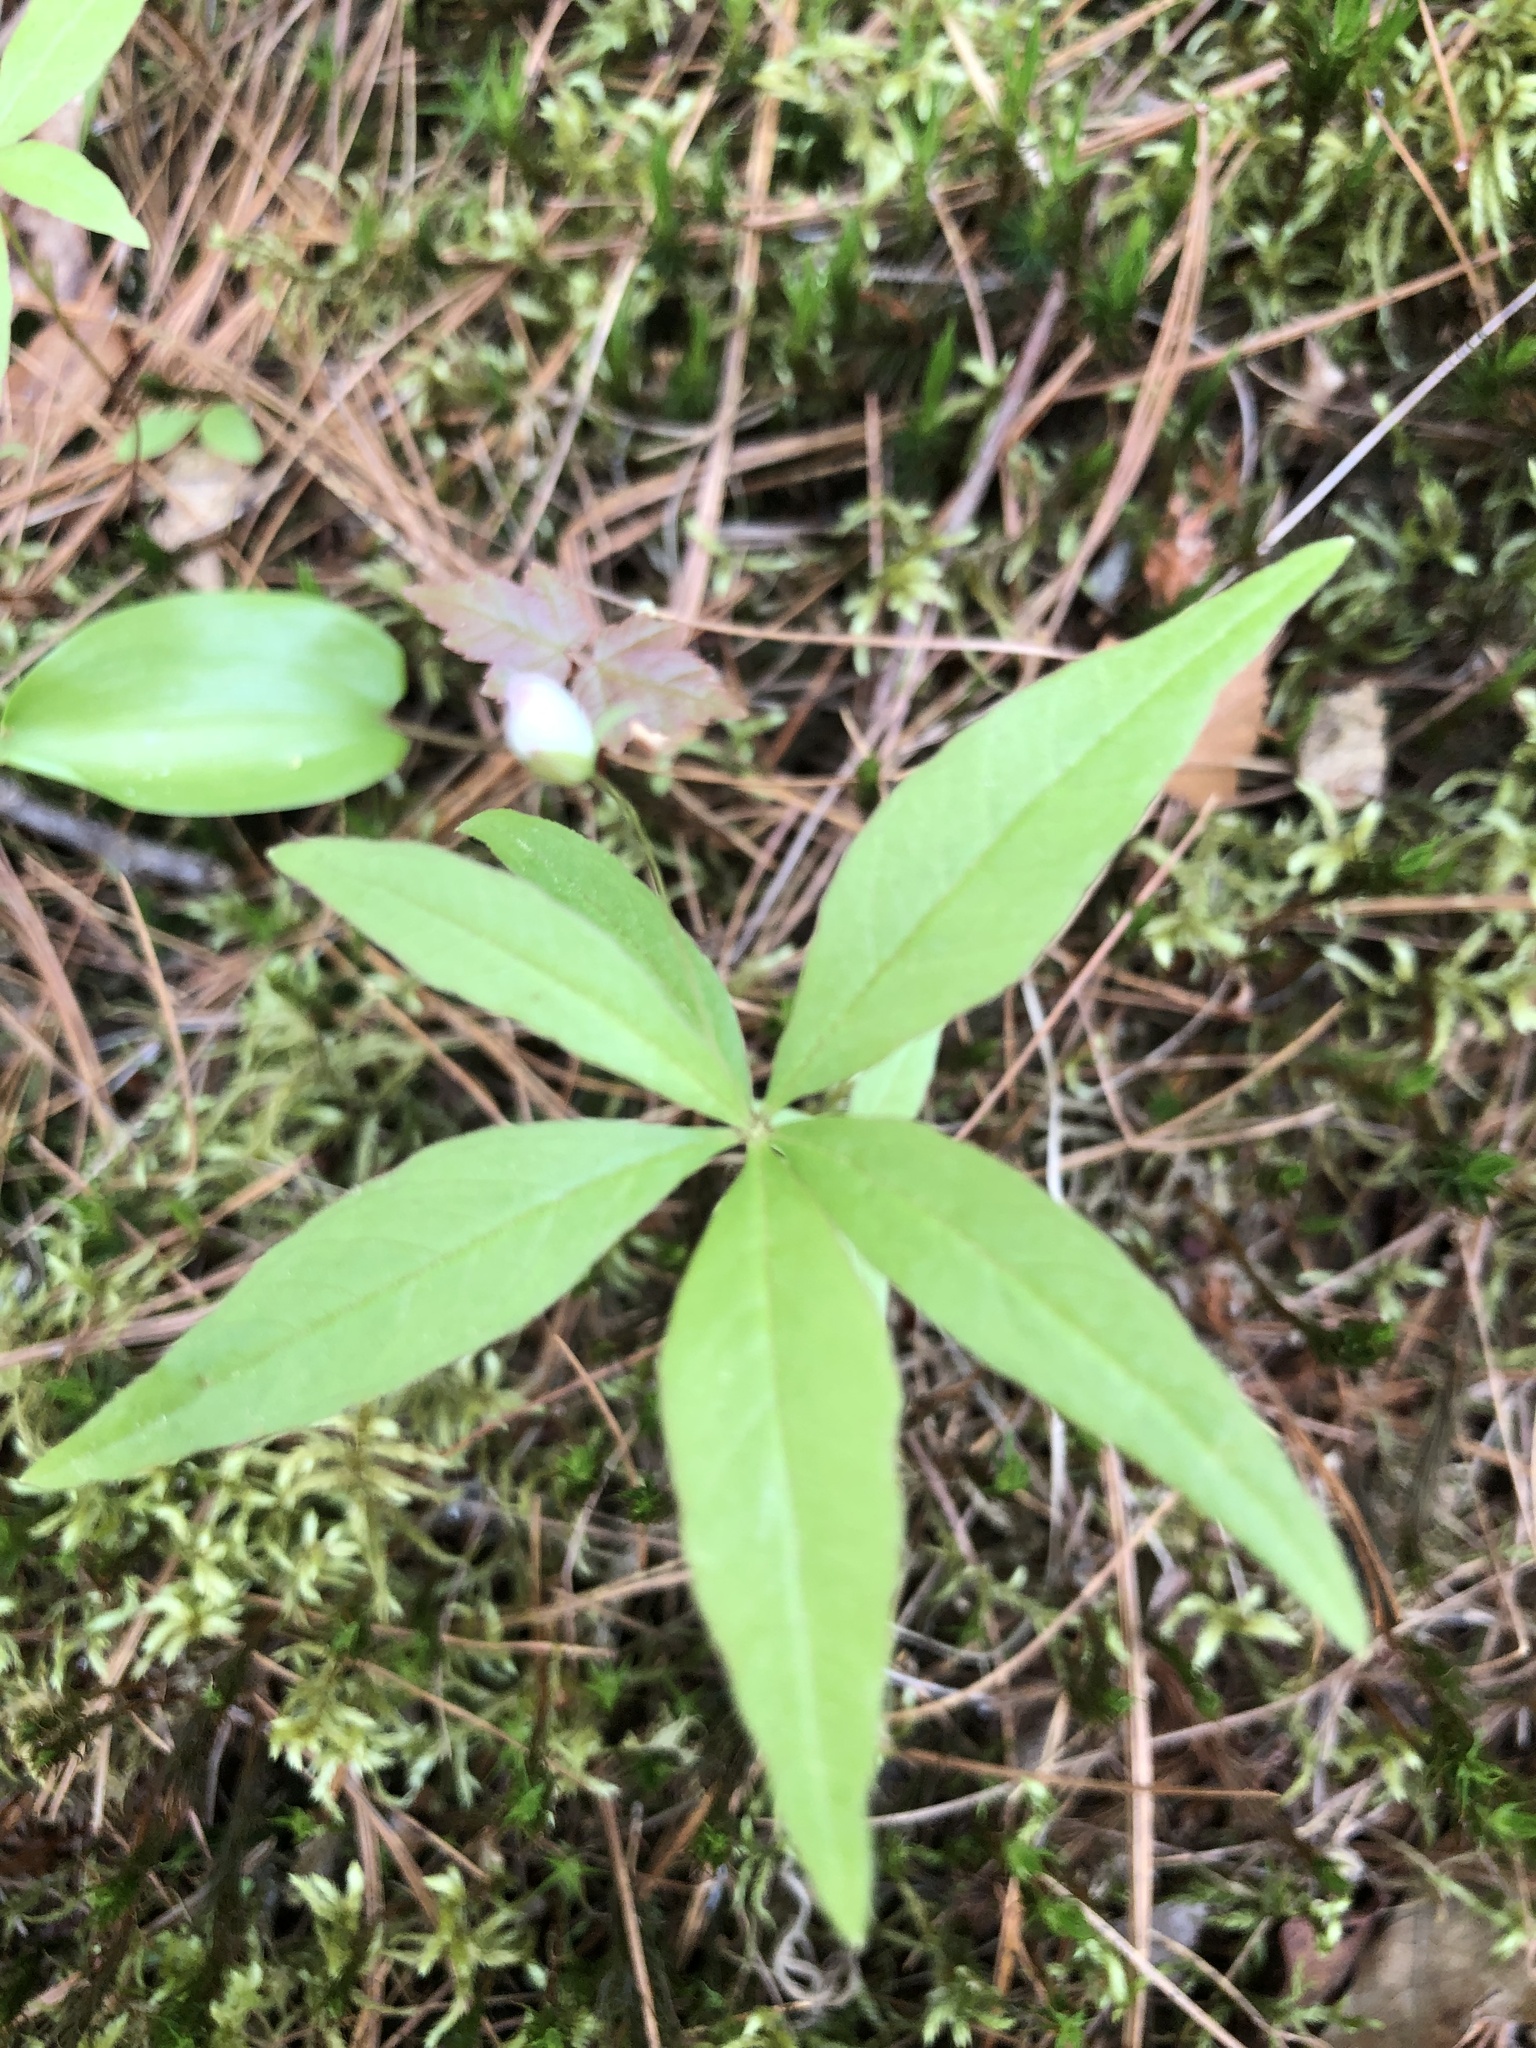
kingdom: Plantae
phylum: Tracheophyta
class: Magnoliopsida
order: Ericales
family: Primulaceae
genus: Lysimachia
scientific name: Lysimachia borealis
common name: American starflower
